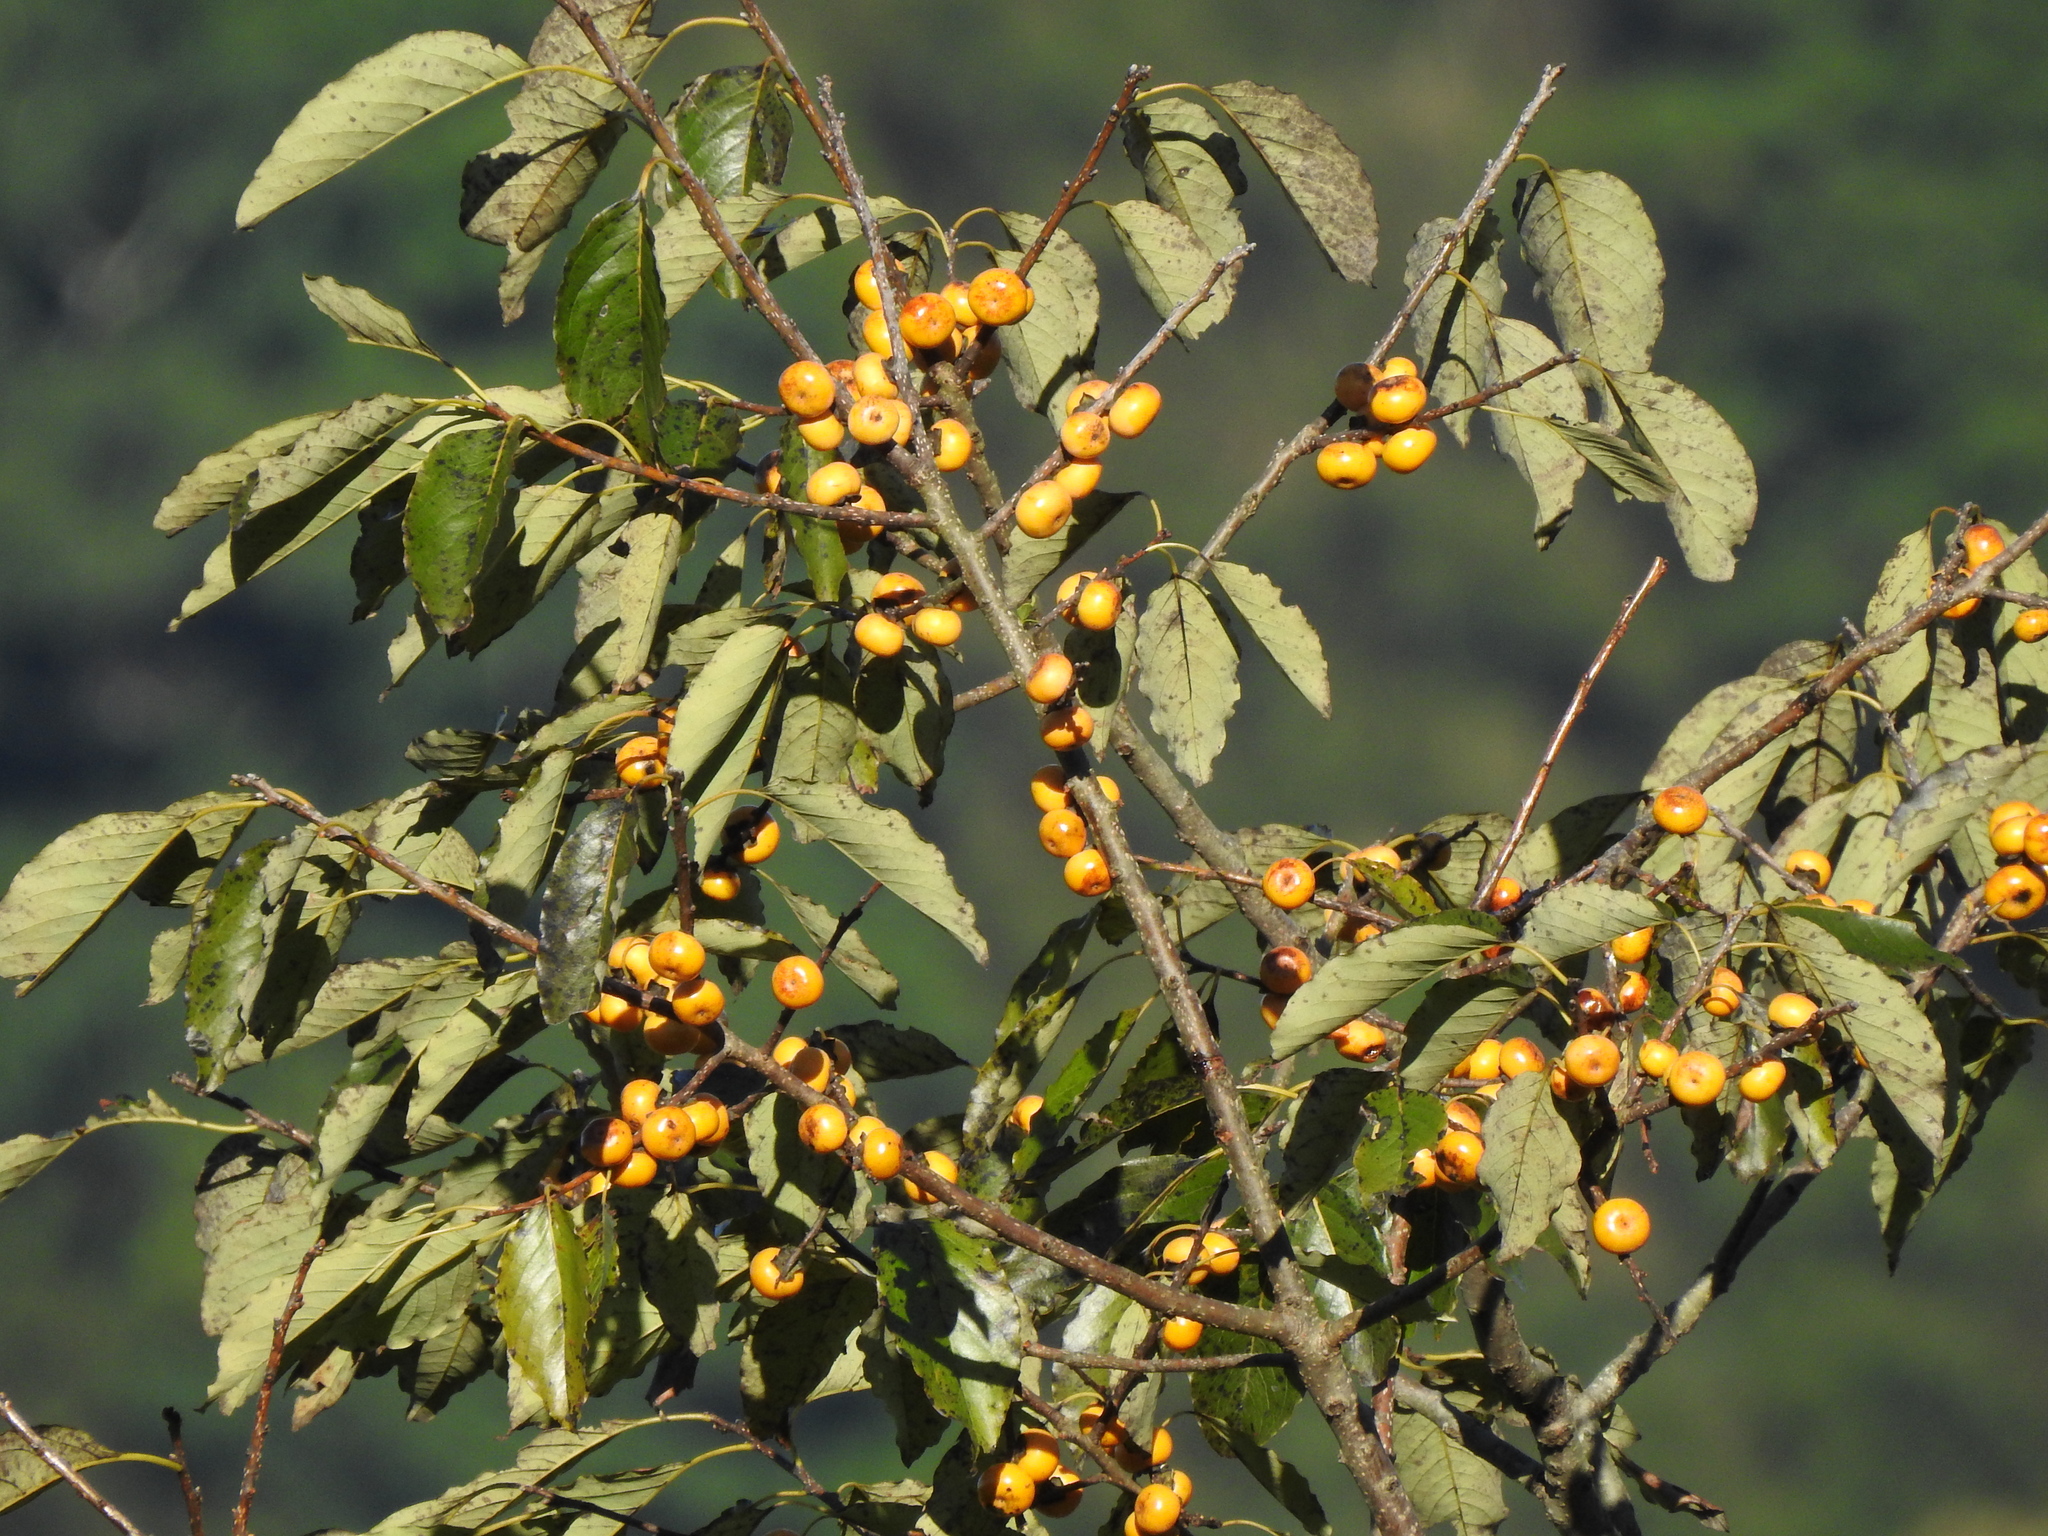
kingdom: Plantae
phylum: Tracheophyta
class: Magnoliopsida
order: Ericales
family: Ebenaceae
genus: Diospyros
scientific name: Diospyros japonica
